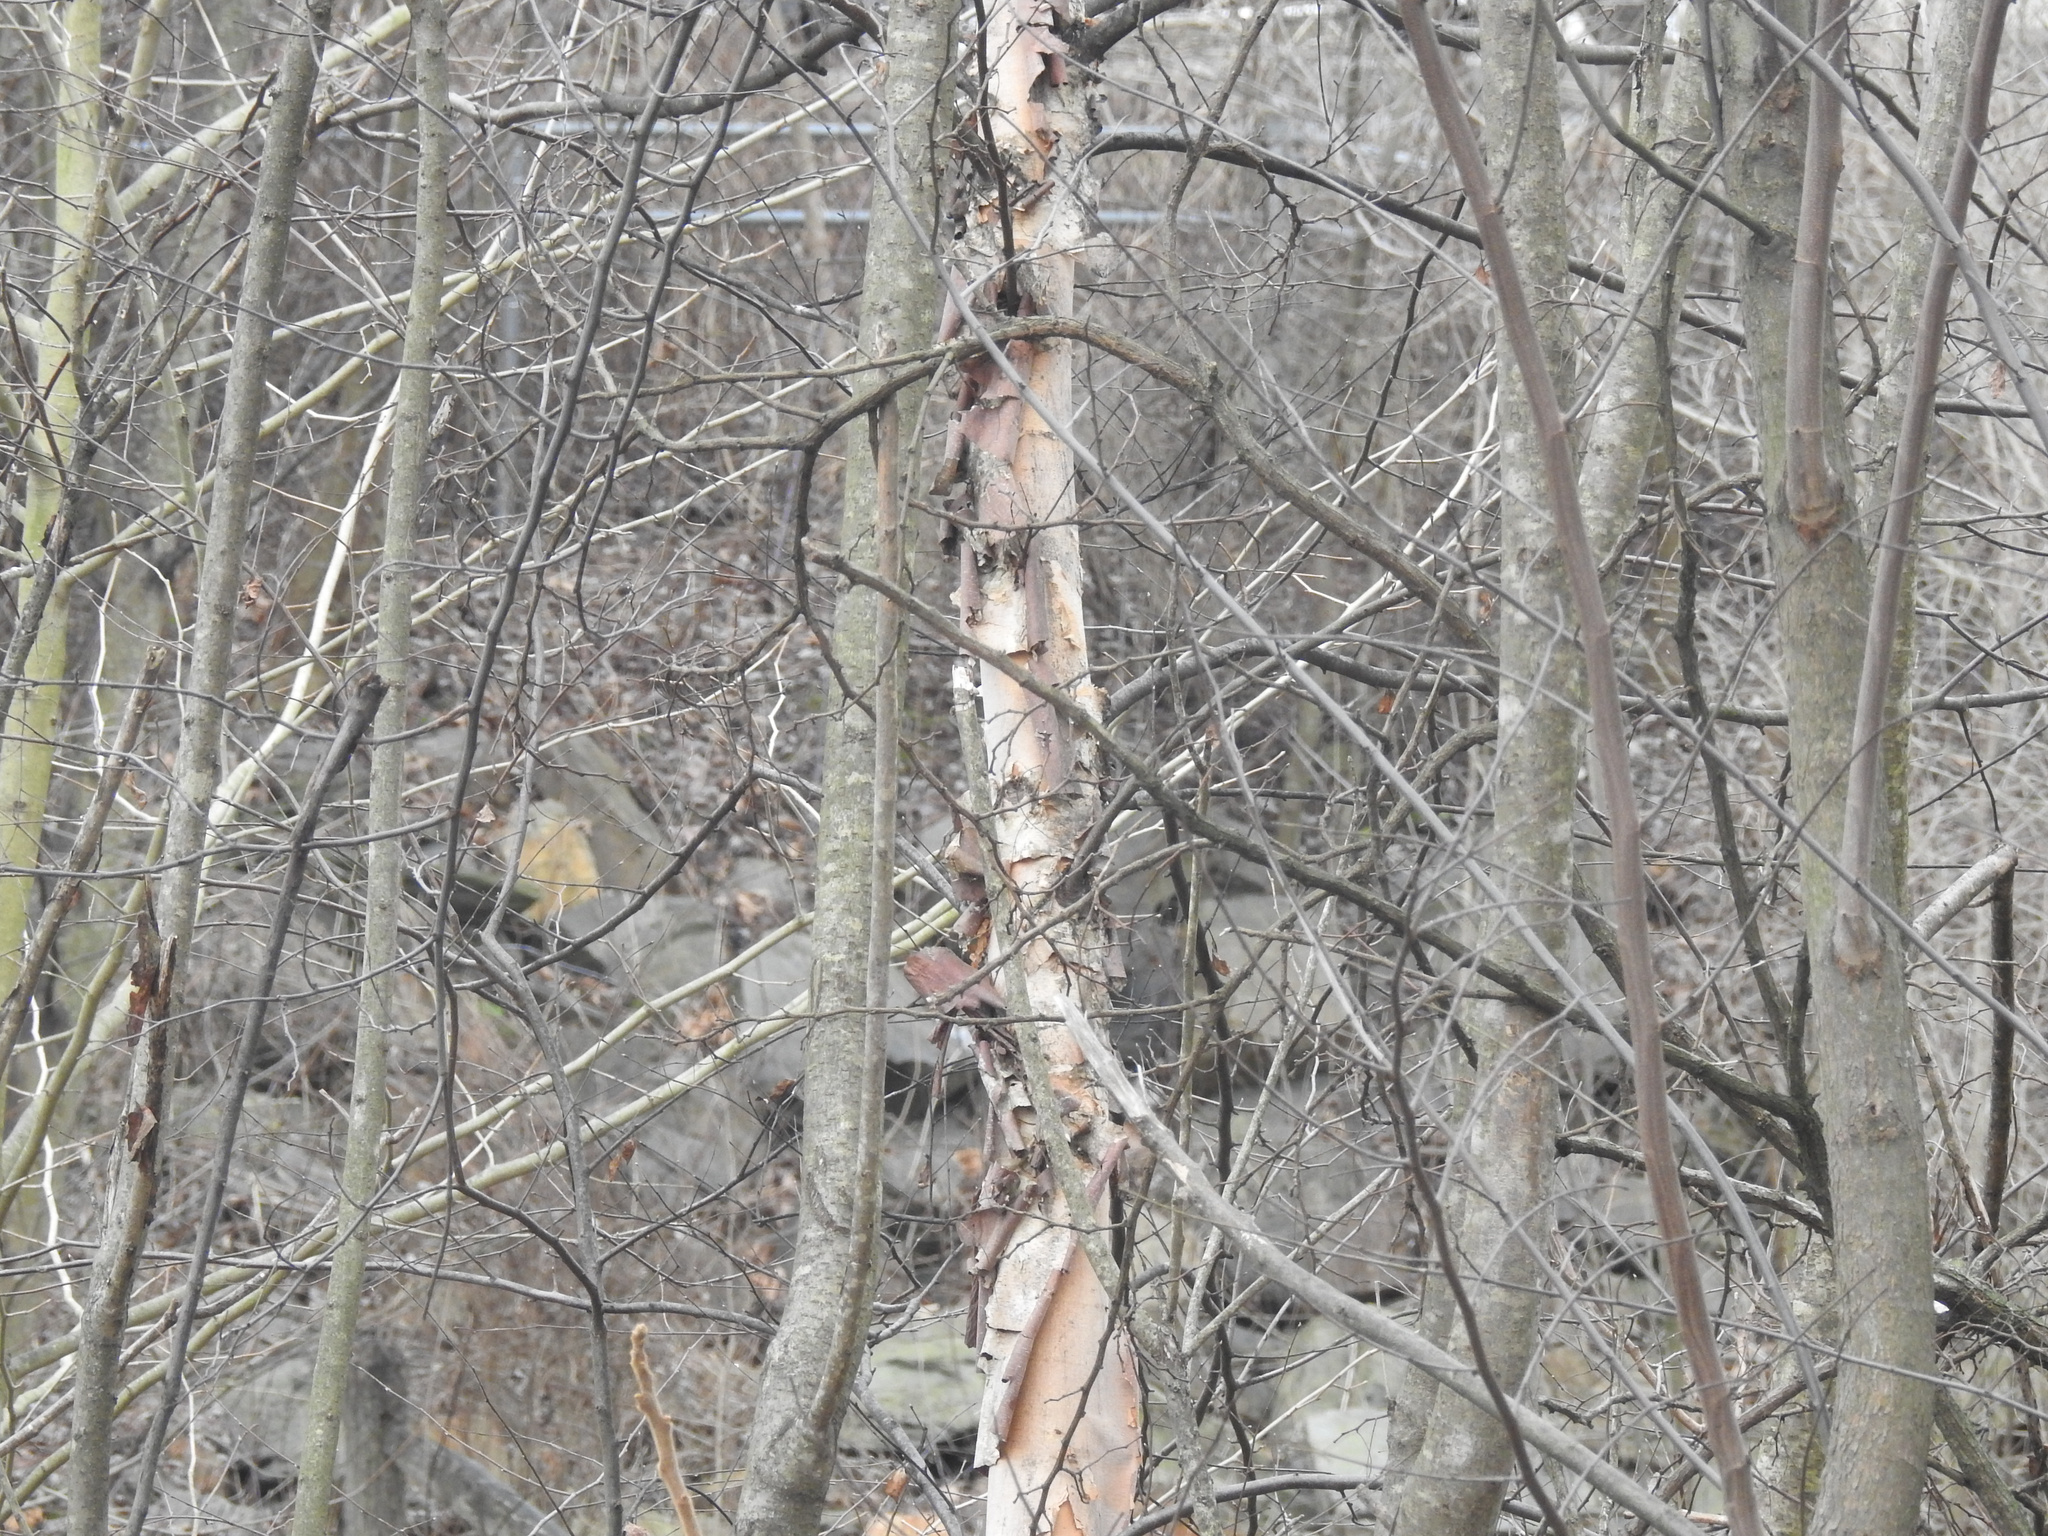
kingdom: Plantae
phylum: Tracheophyta
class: Magnoliopsida
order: Fagales
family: Betulaceae
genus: Betula
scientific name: Betula nigra
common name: Black birch
